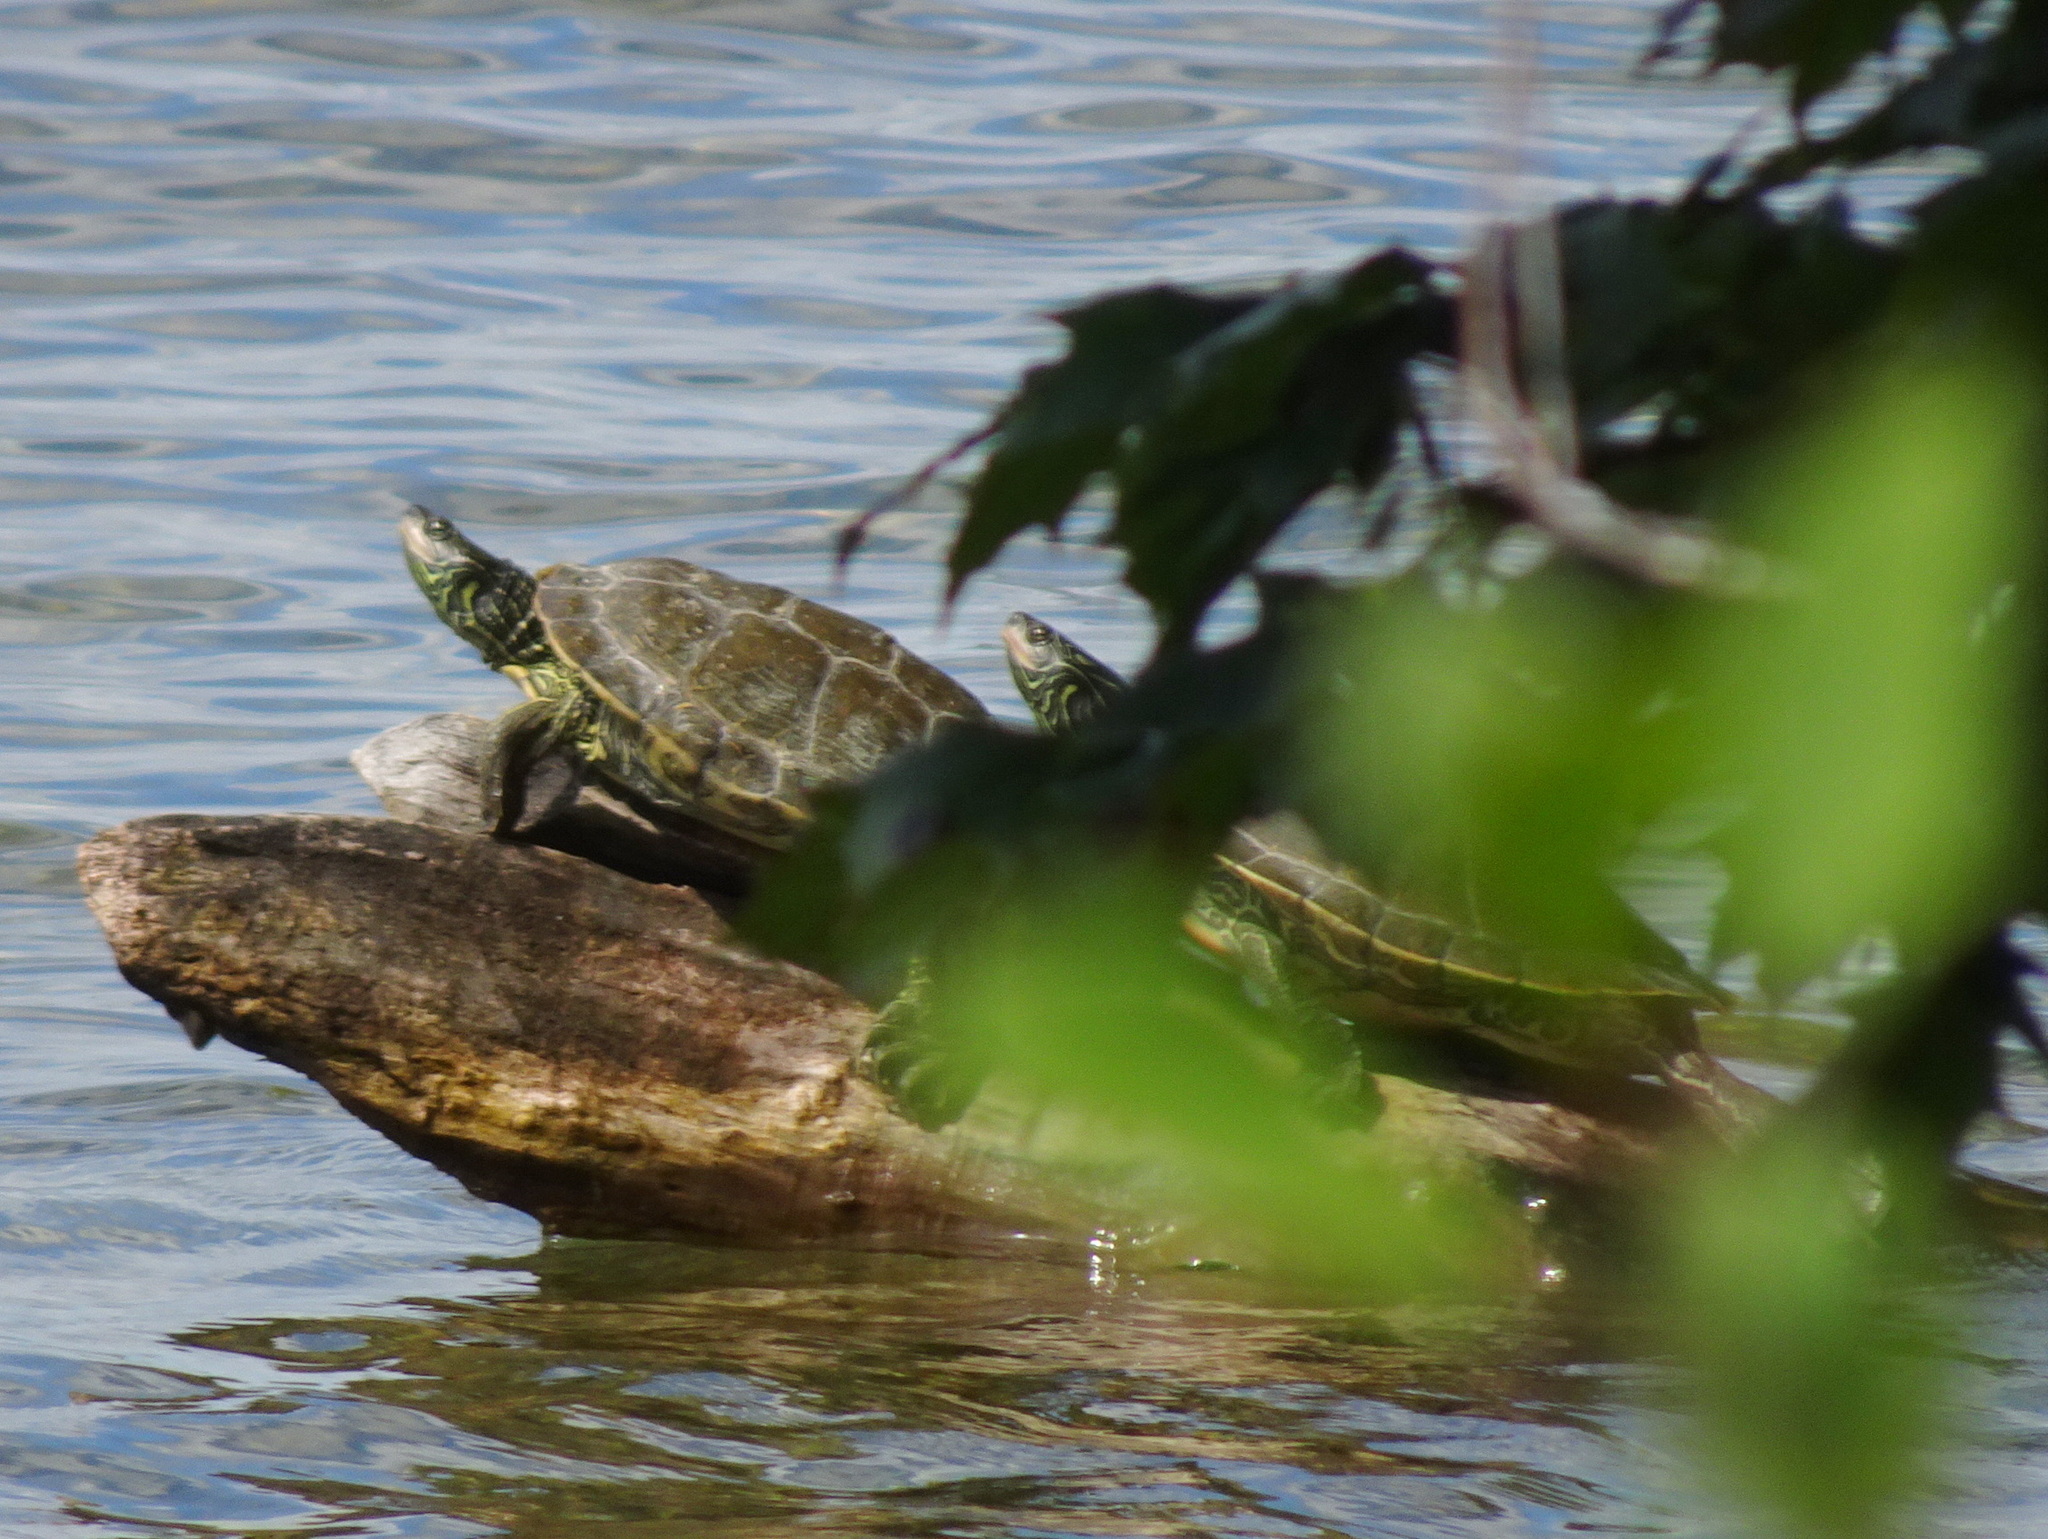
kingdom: Animalia
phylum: Chordata
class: Testudines
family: Emydidae
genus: Graptemys
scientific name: Graptemys geographica
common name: Common map turtle
